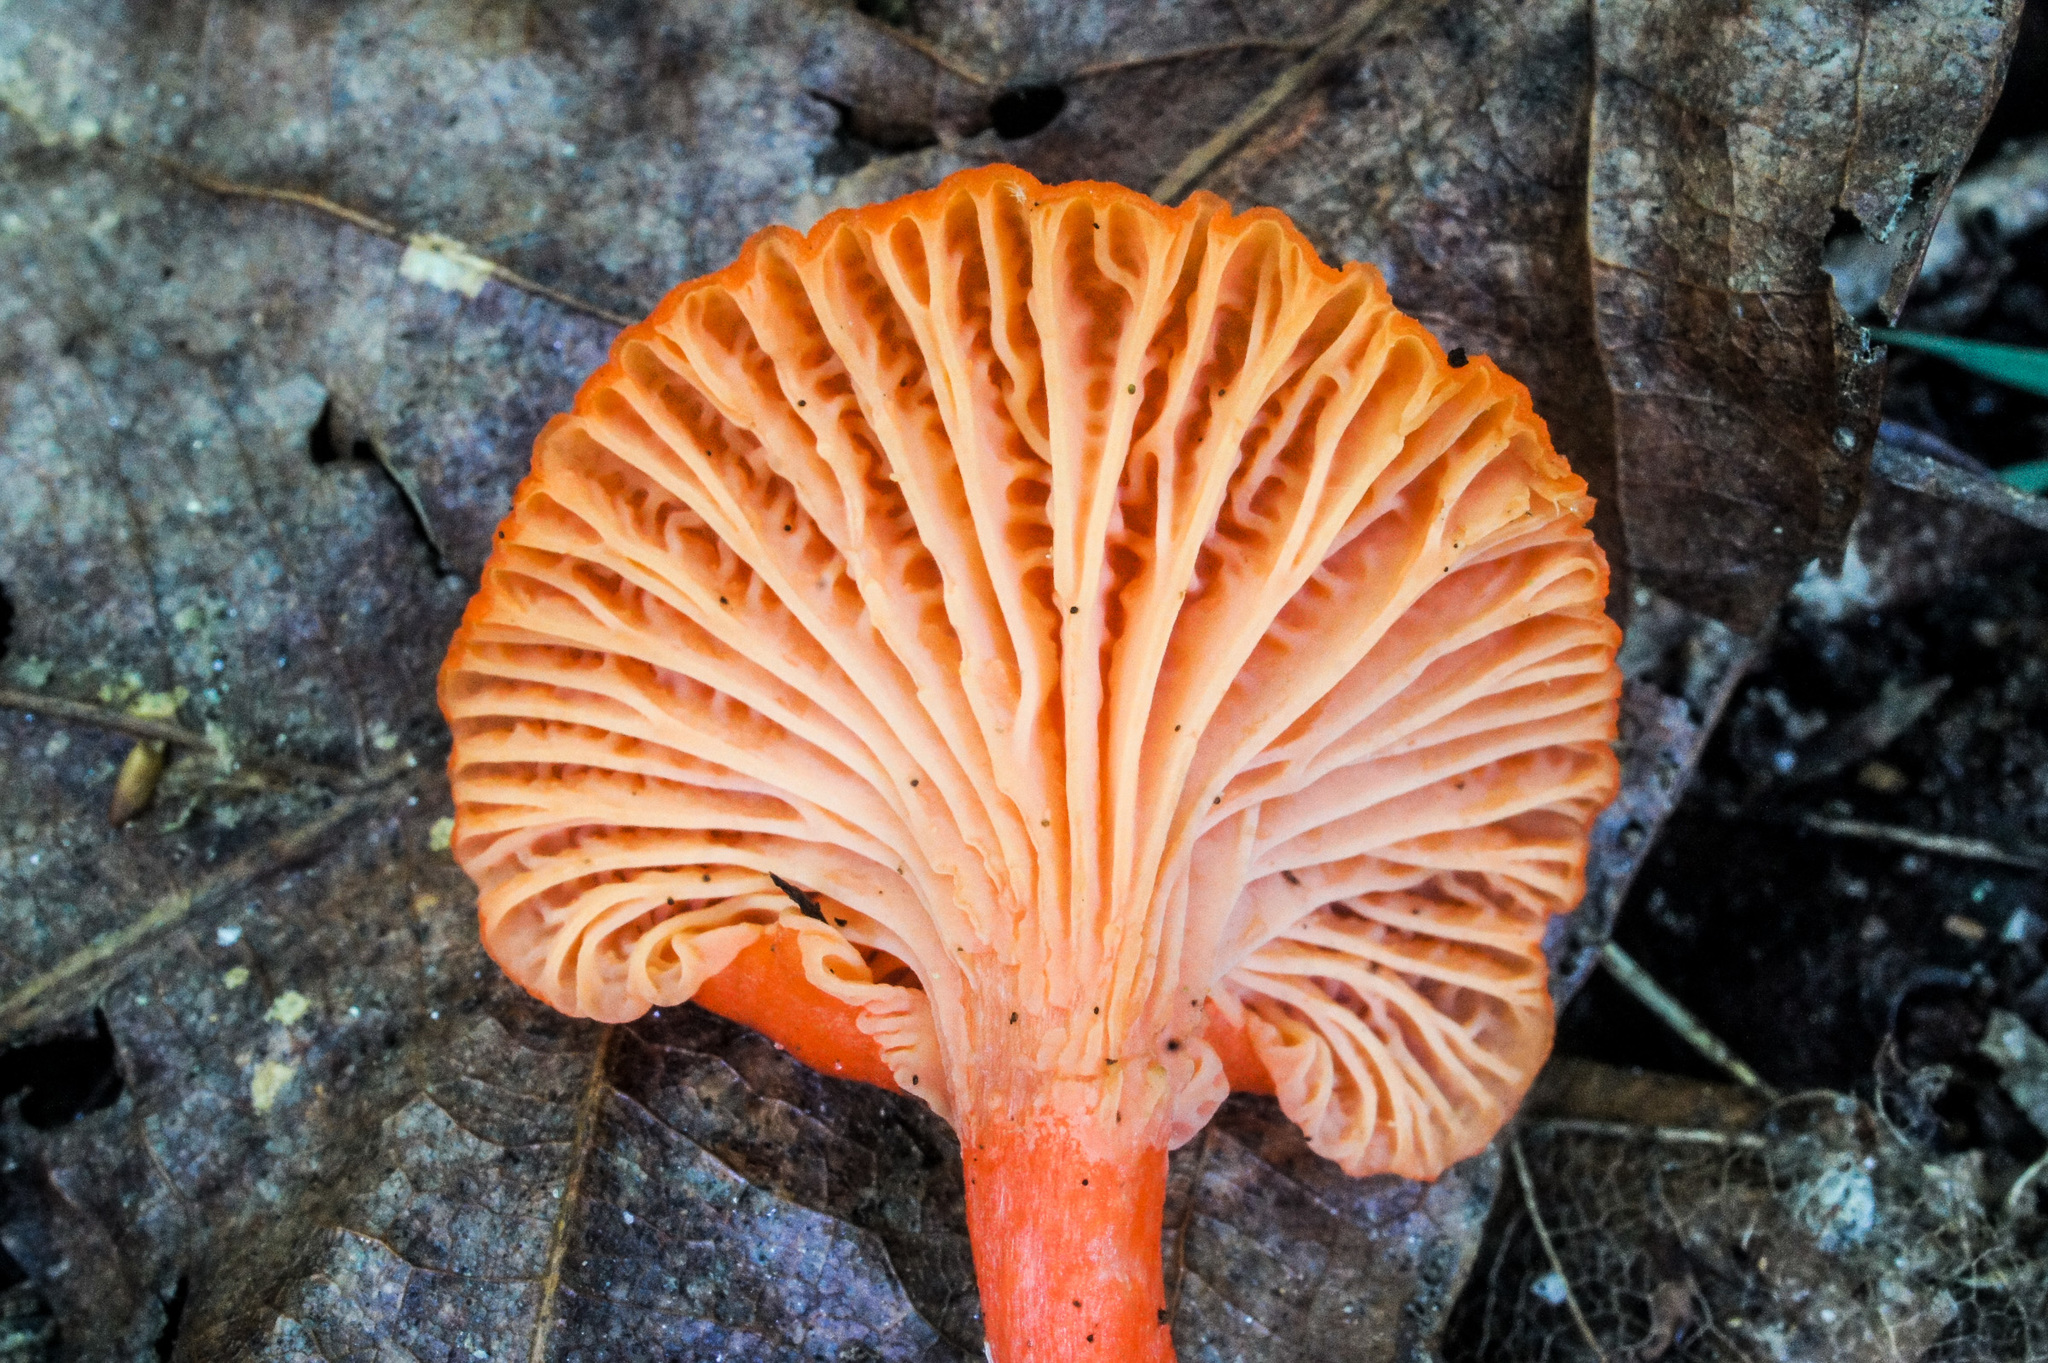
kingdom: Fungi
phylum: Basidiomycota
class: Agaricomycetes
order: Cantharellales
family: Hydnaceae
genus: Cantharellus
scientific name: Cantharellus cinnabarinus
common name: Cinnabar chanterelle
